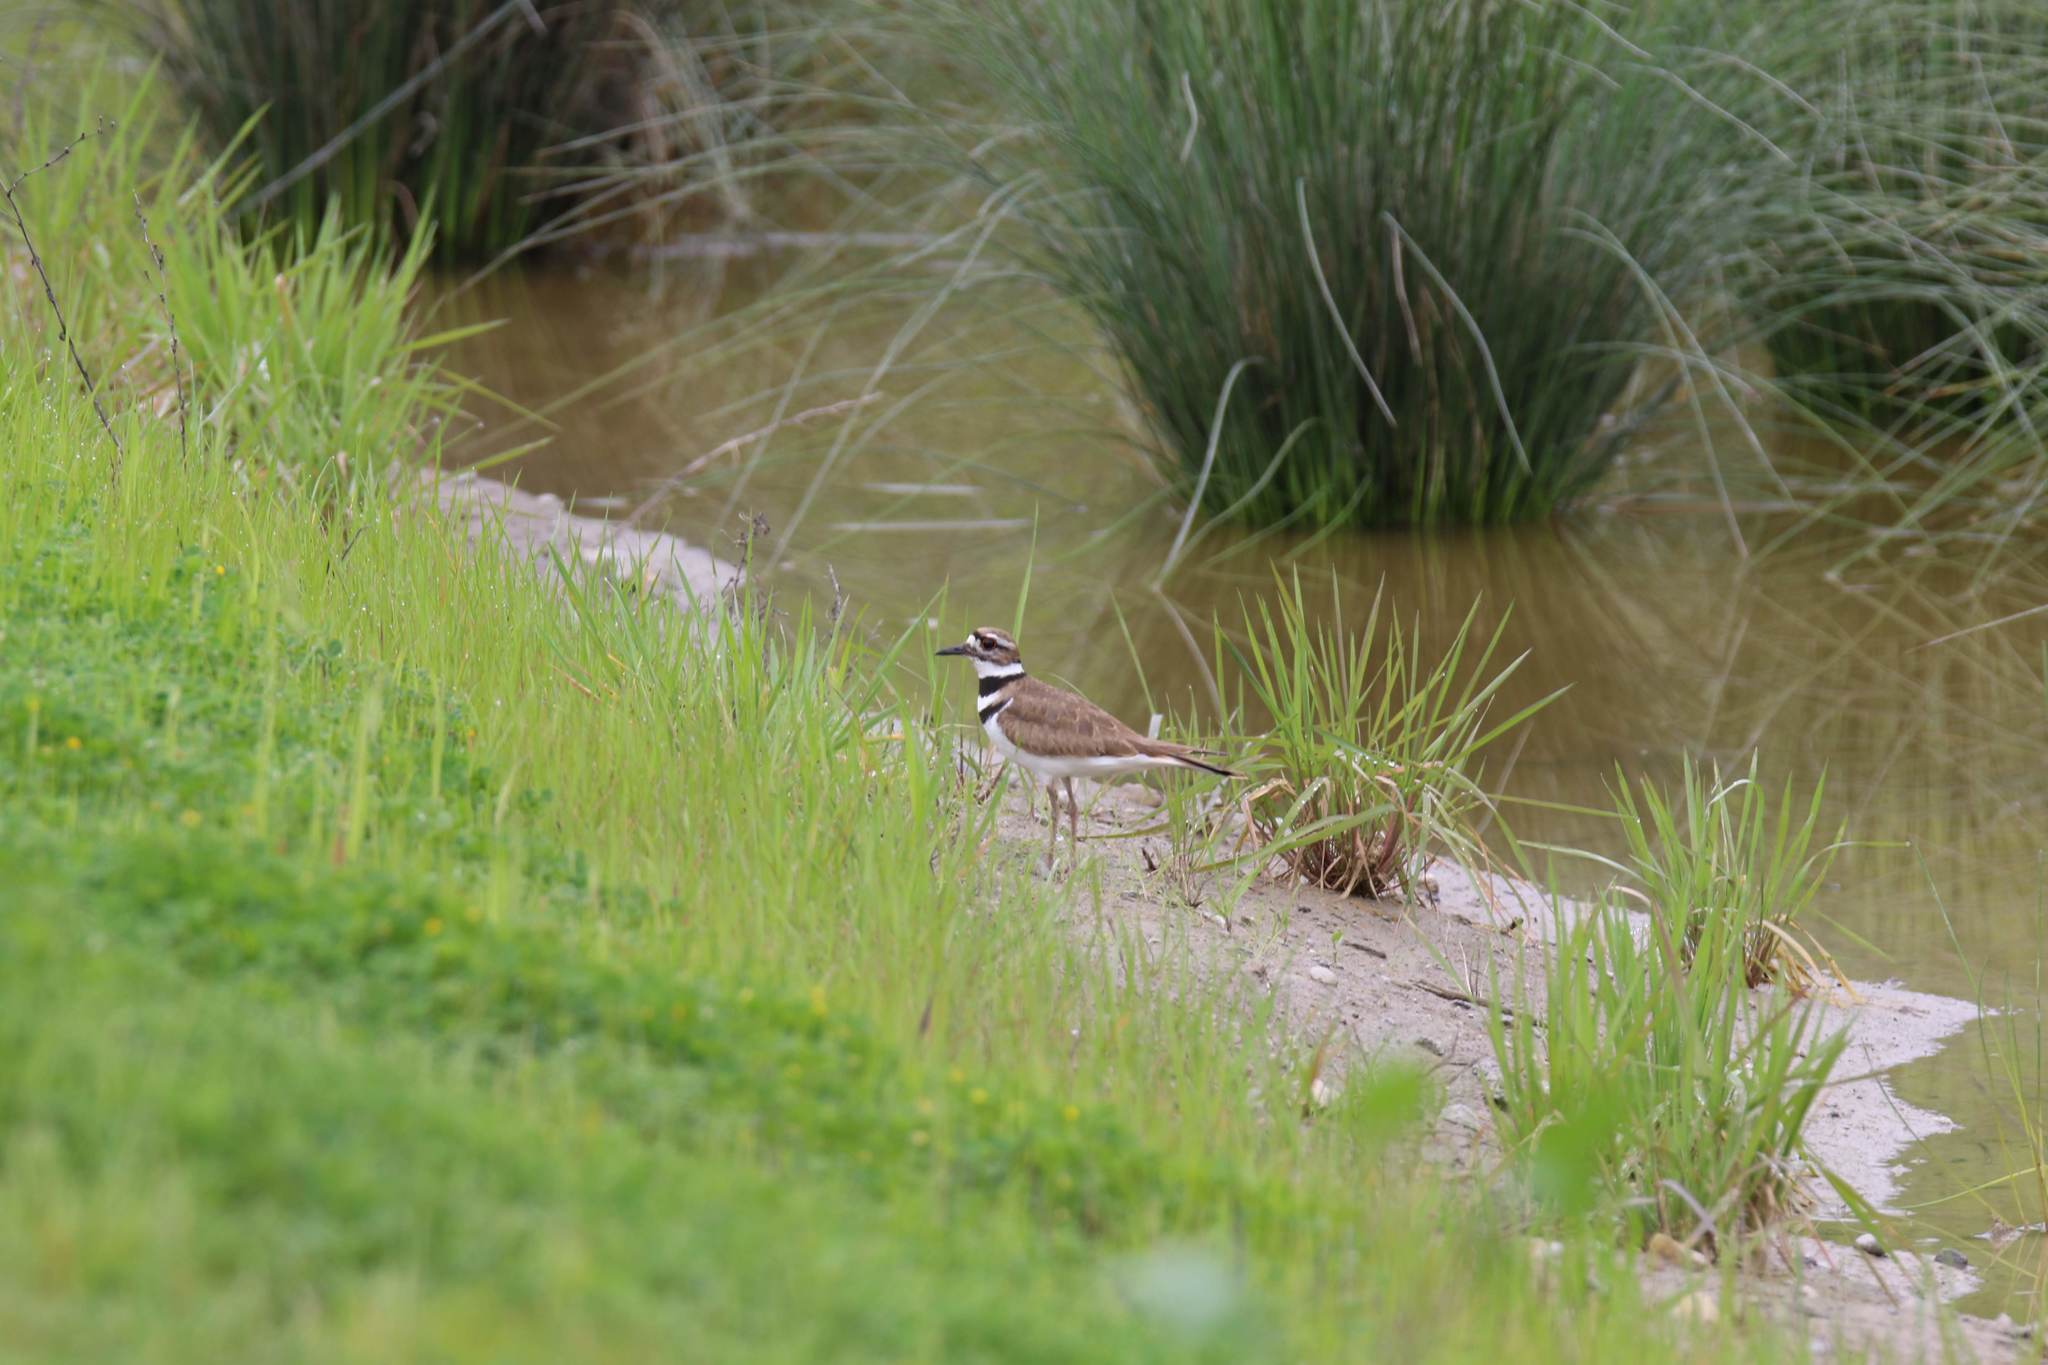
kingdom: Animalia
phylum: Chordata
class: Aves
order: Charadriiformes
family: Charadriidae
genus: Charadrius
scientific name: Charadrius vociferus
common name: Killdeer
